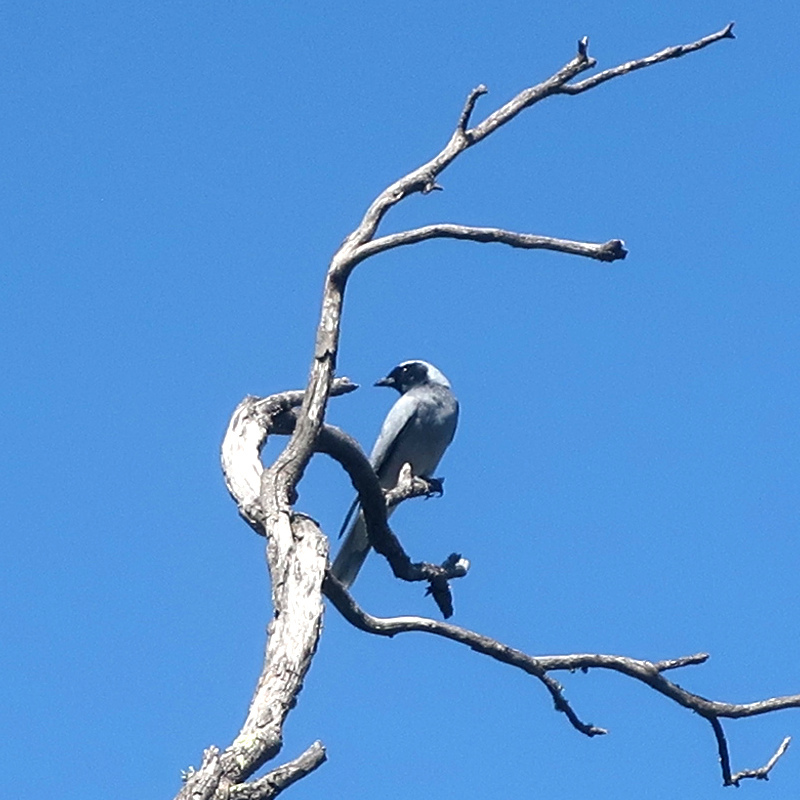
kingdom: Animalia
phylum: Chordata
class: Aves
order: Passeriformes
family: Campephagidae
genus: Coracina
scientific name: Coracina novaehollandiae
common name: Black-faced cuckooshrike
